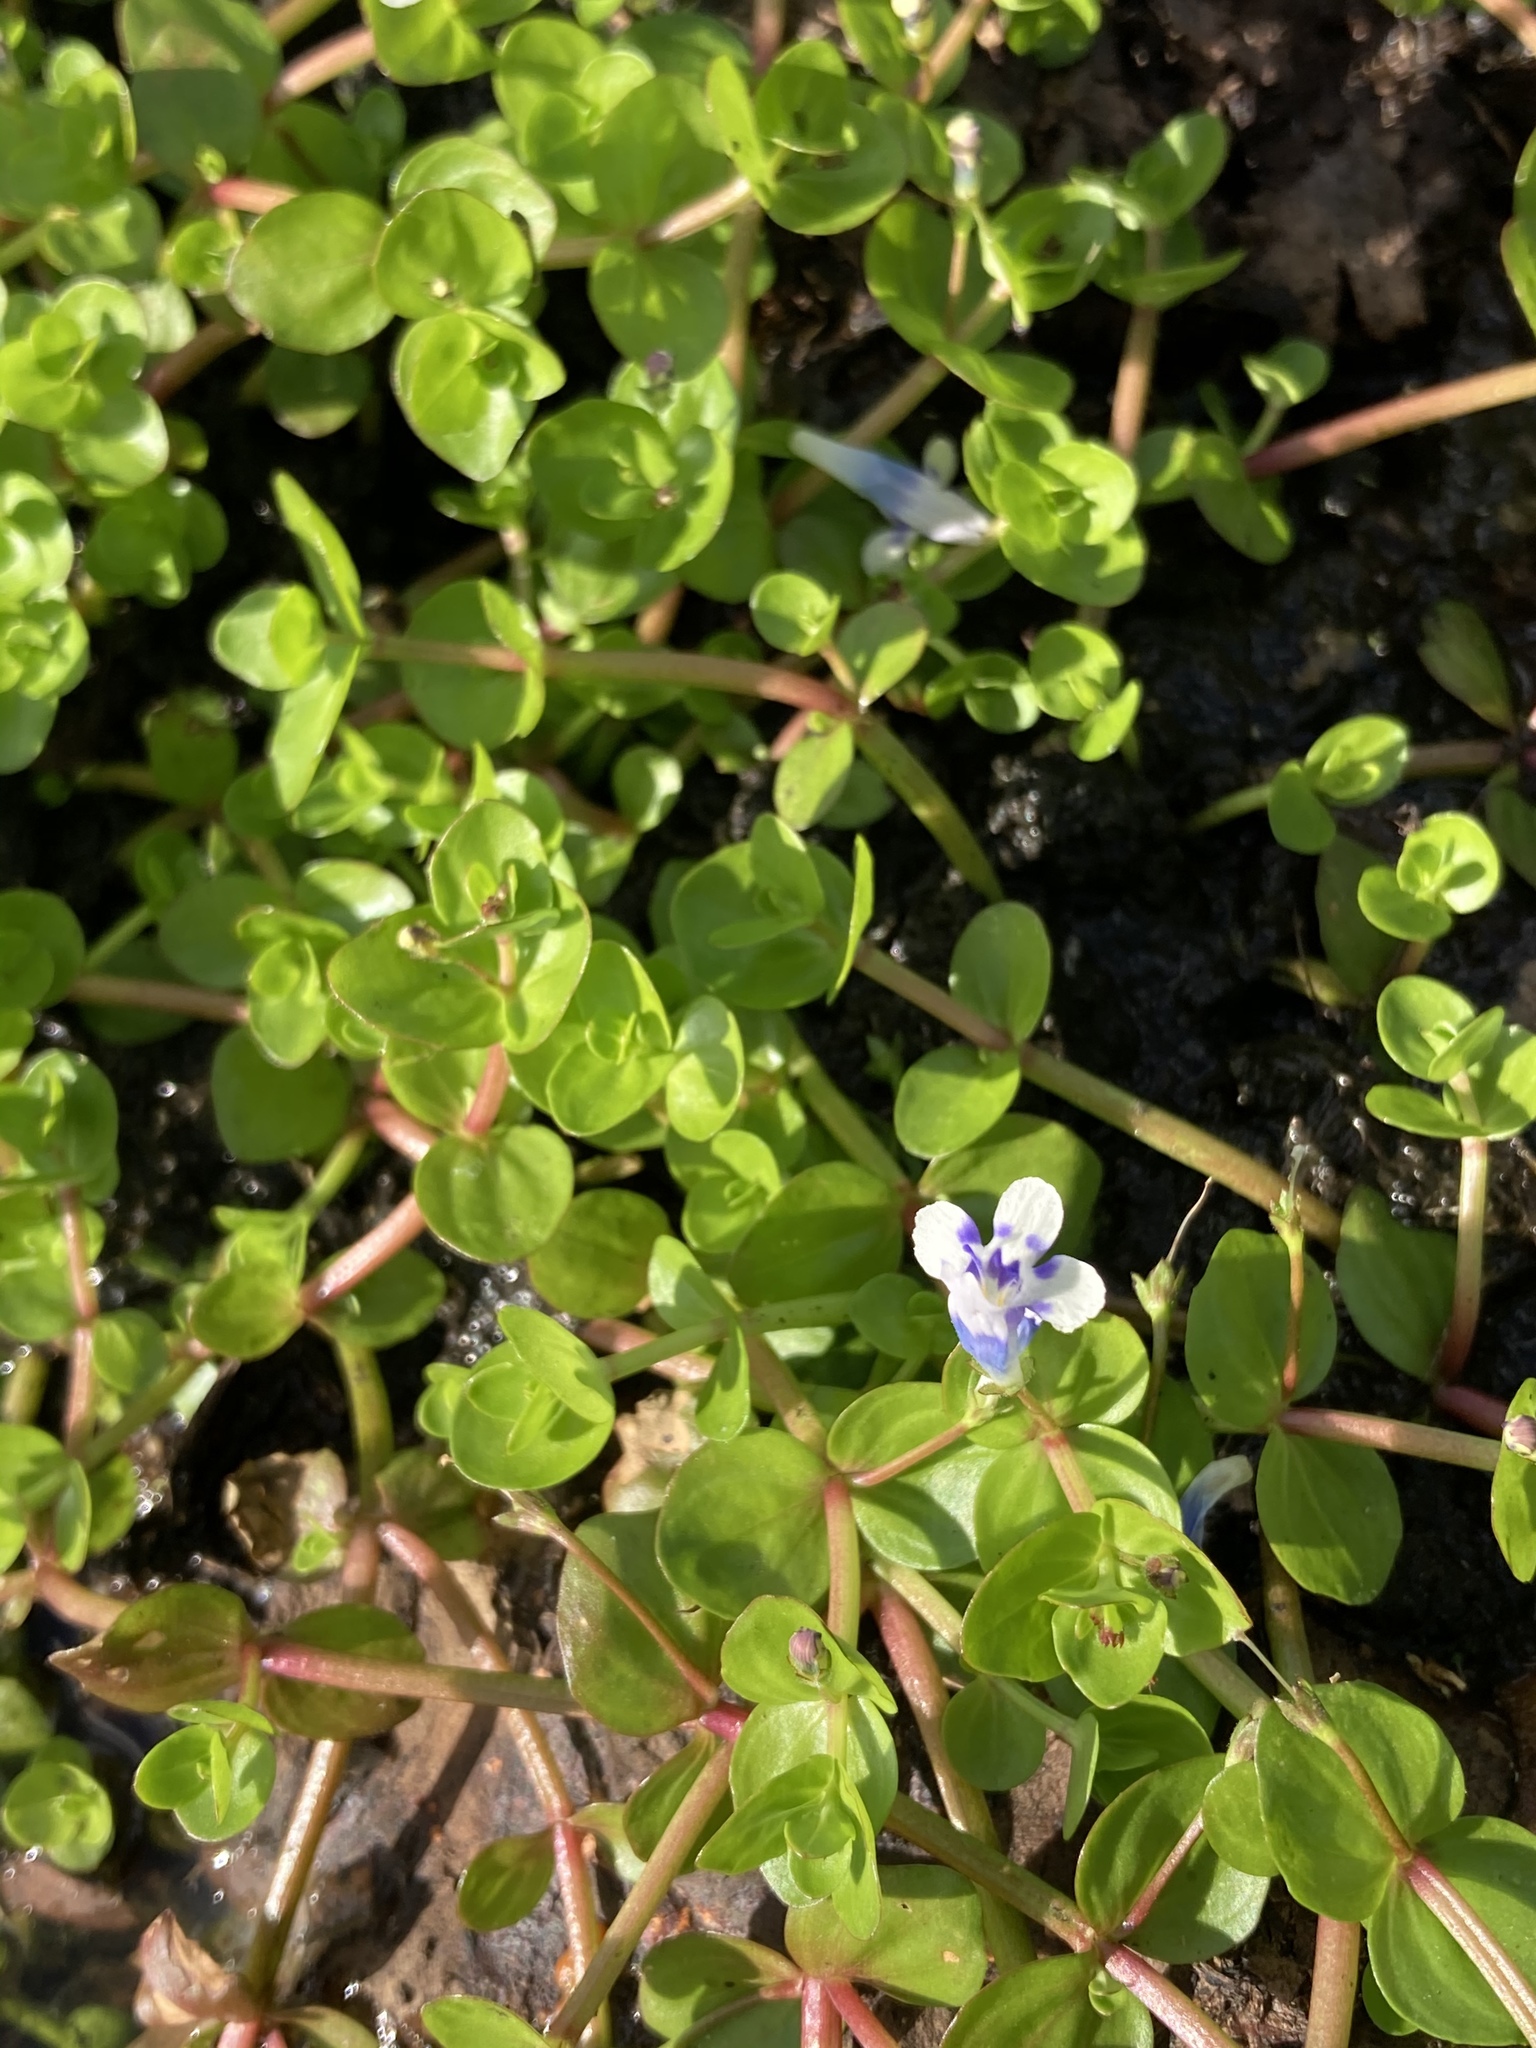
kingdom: Plantae
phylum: Tracheophyta
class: Magnoliopsida
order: Lamiales
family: Linderniaceae
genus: Lindernia
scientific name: Lindernia grandiflora
